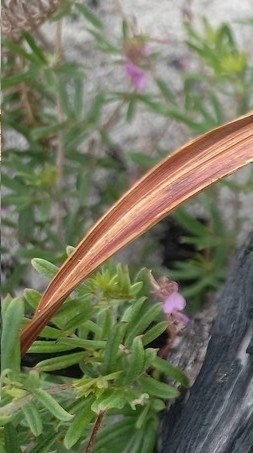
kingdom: Plantae
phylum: Tracheophyta
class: Magnoliopsida
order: Fabales
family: Fabaceae
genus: Indigofera
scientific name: Indigofera angustifolia
